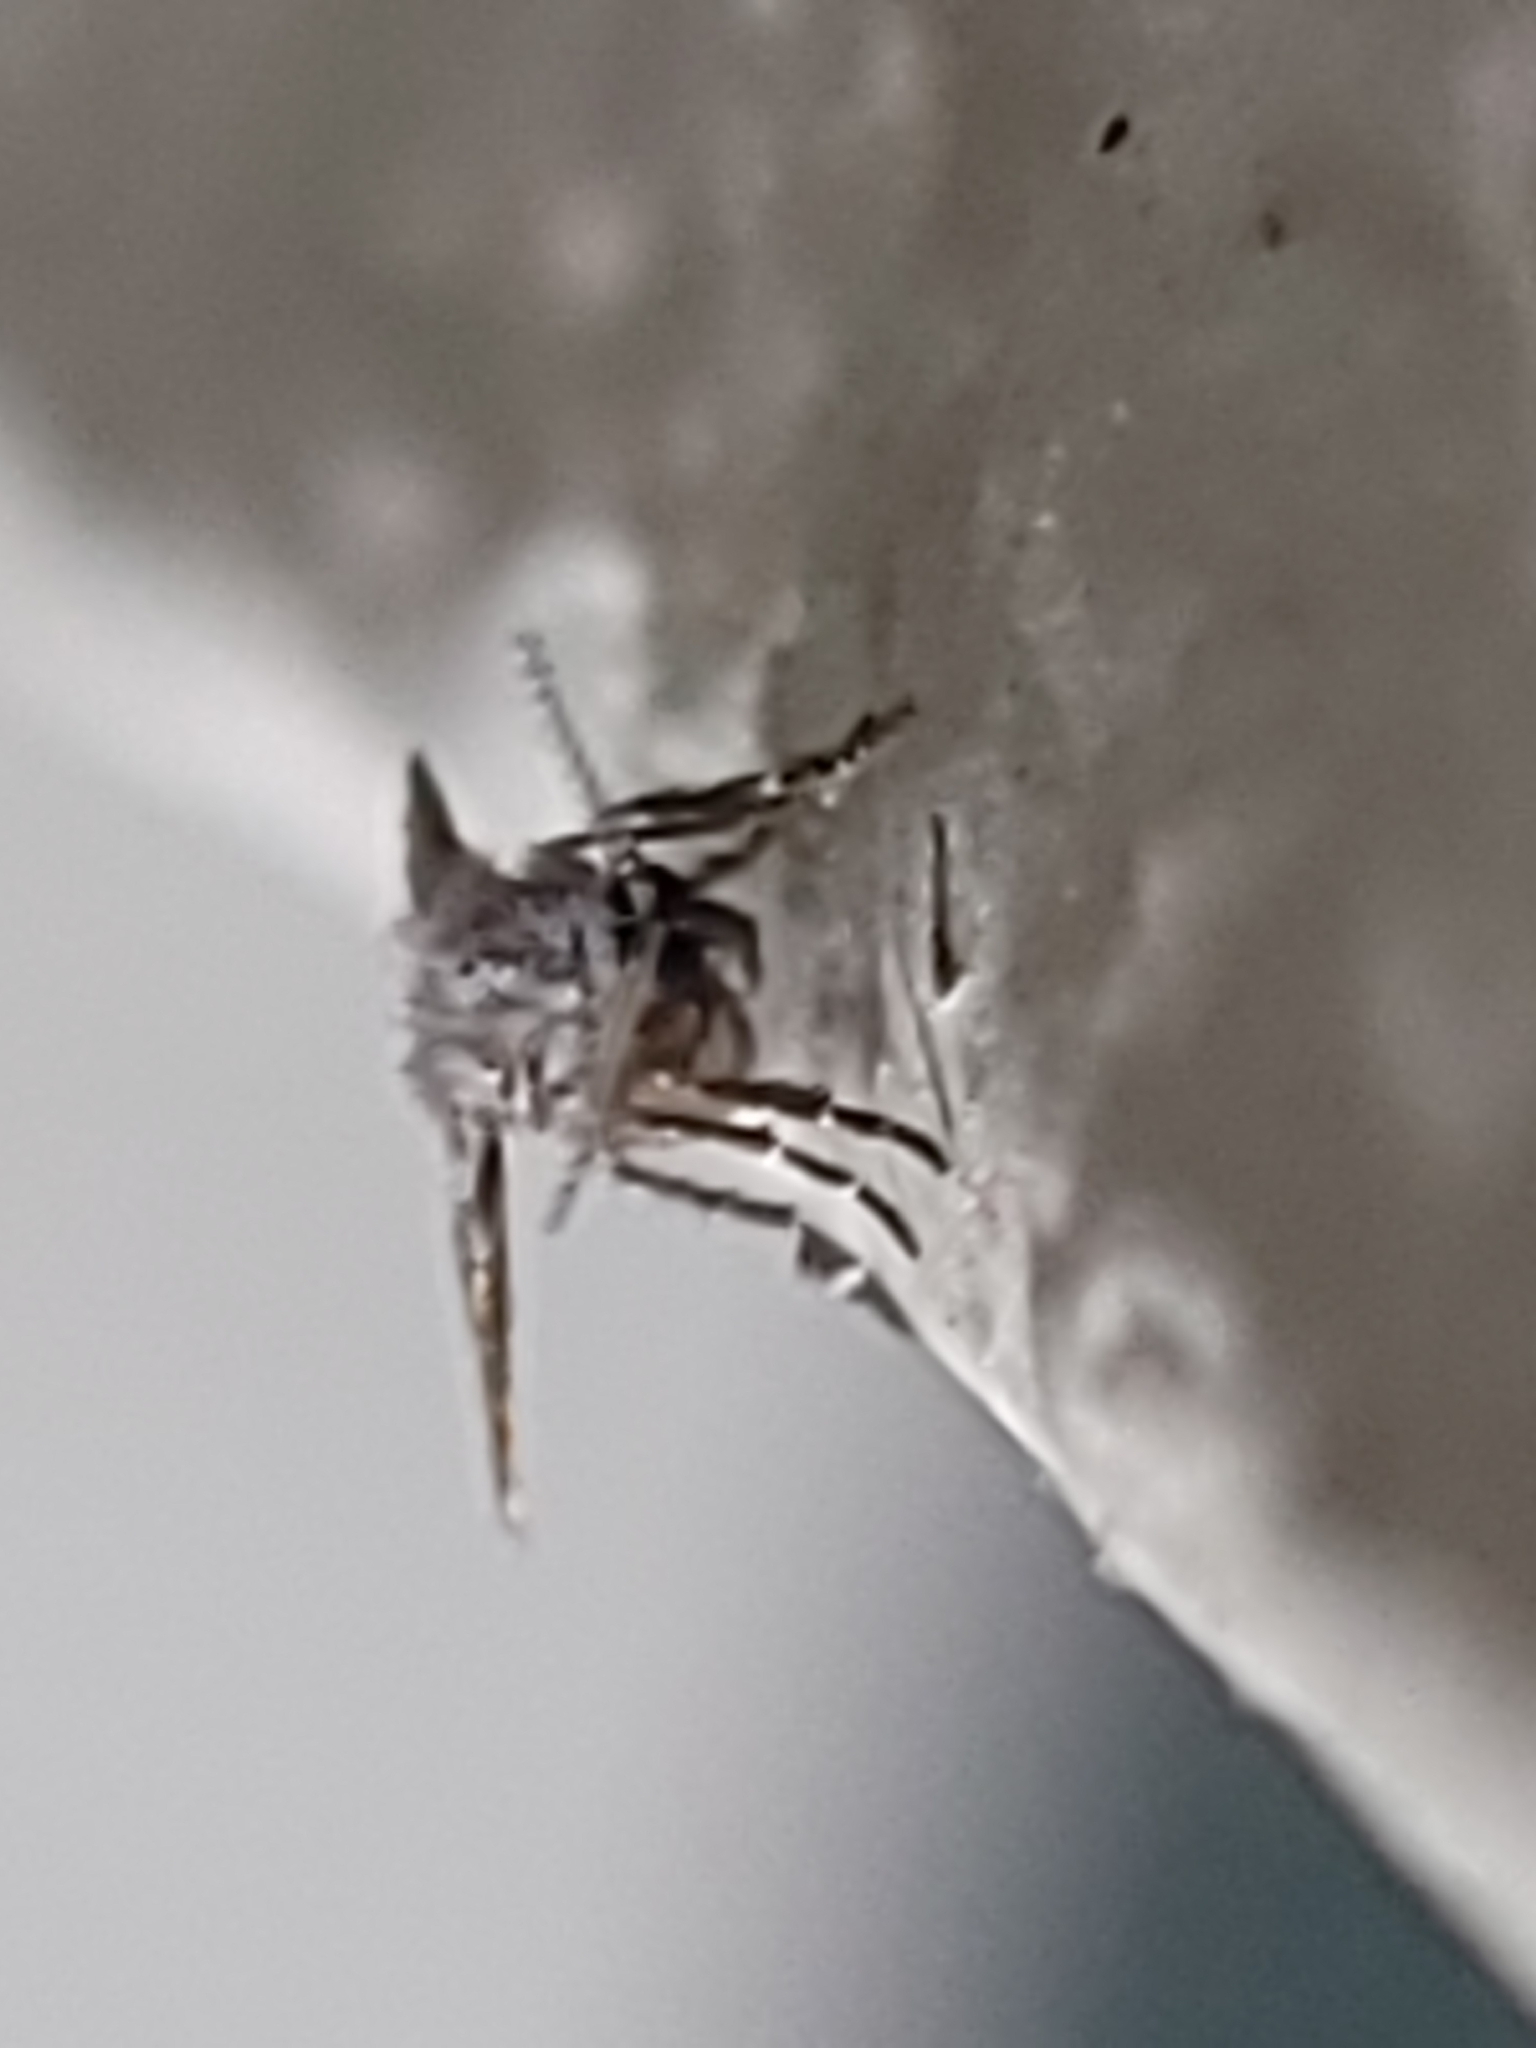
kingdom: Animalia
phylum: Arthropoda
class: Insecta
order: Diptera
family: Psychodidae
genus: Clogmia
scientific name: Clogmia albipunctatus
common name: White-spotted moth fly
